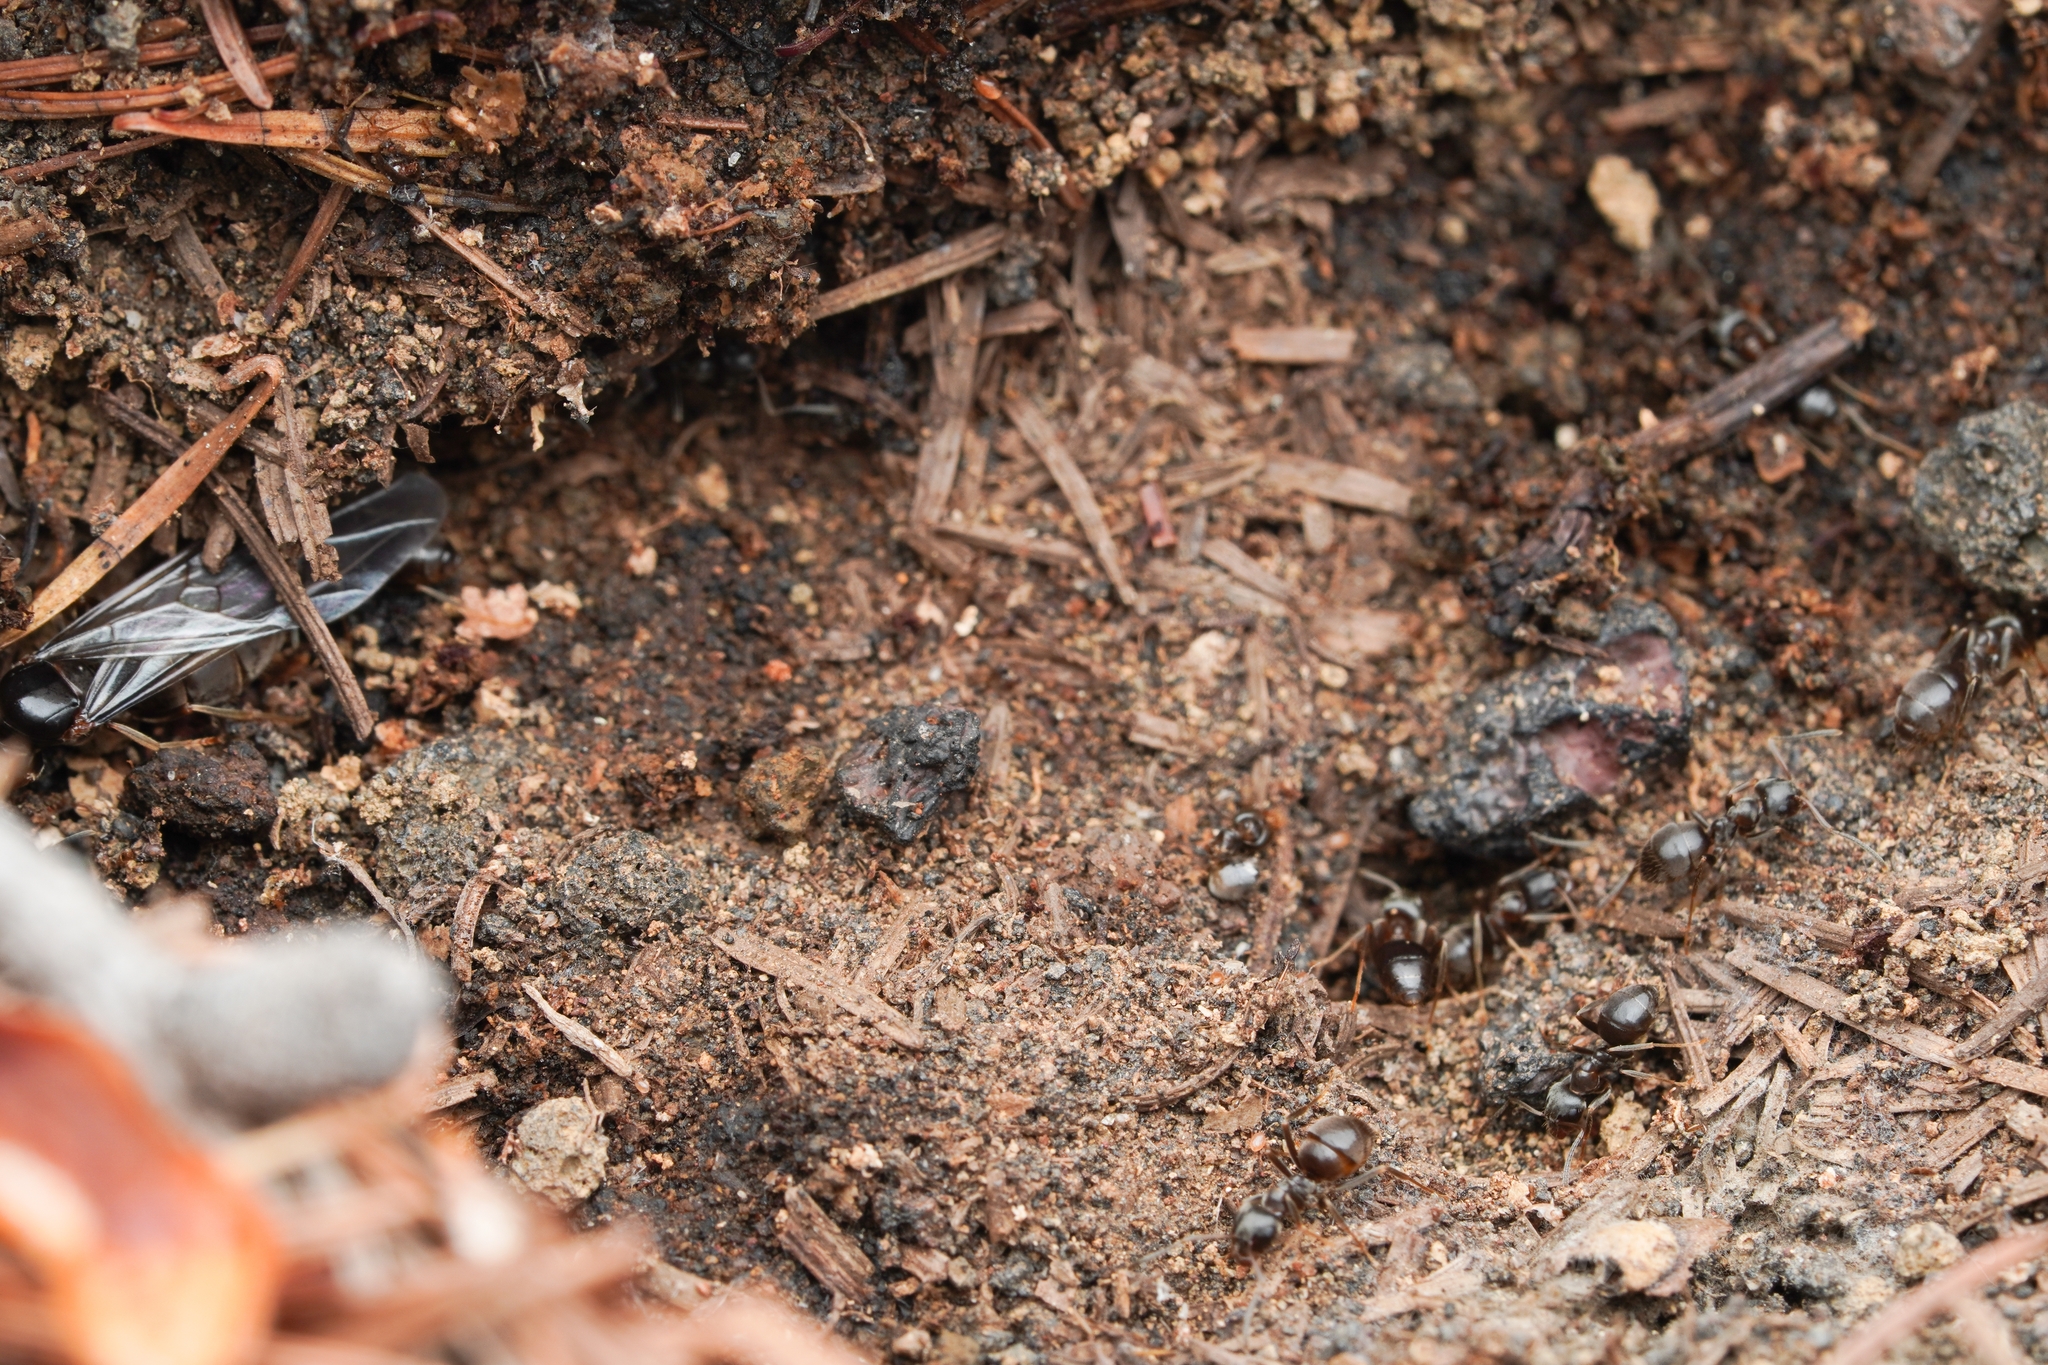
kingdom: Animalia
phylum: Arthropoda
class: Insecta
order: Hymenoptera
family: Formicidae
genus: Lasius
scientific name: Lasius japonicus
